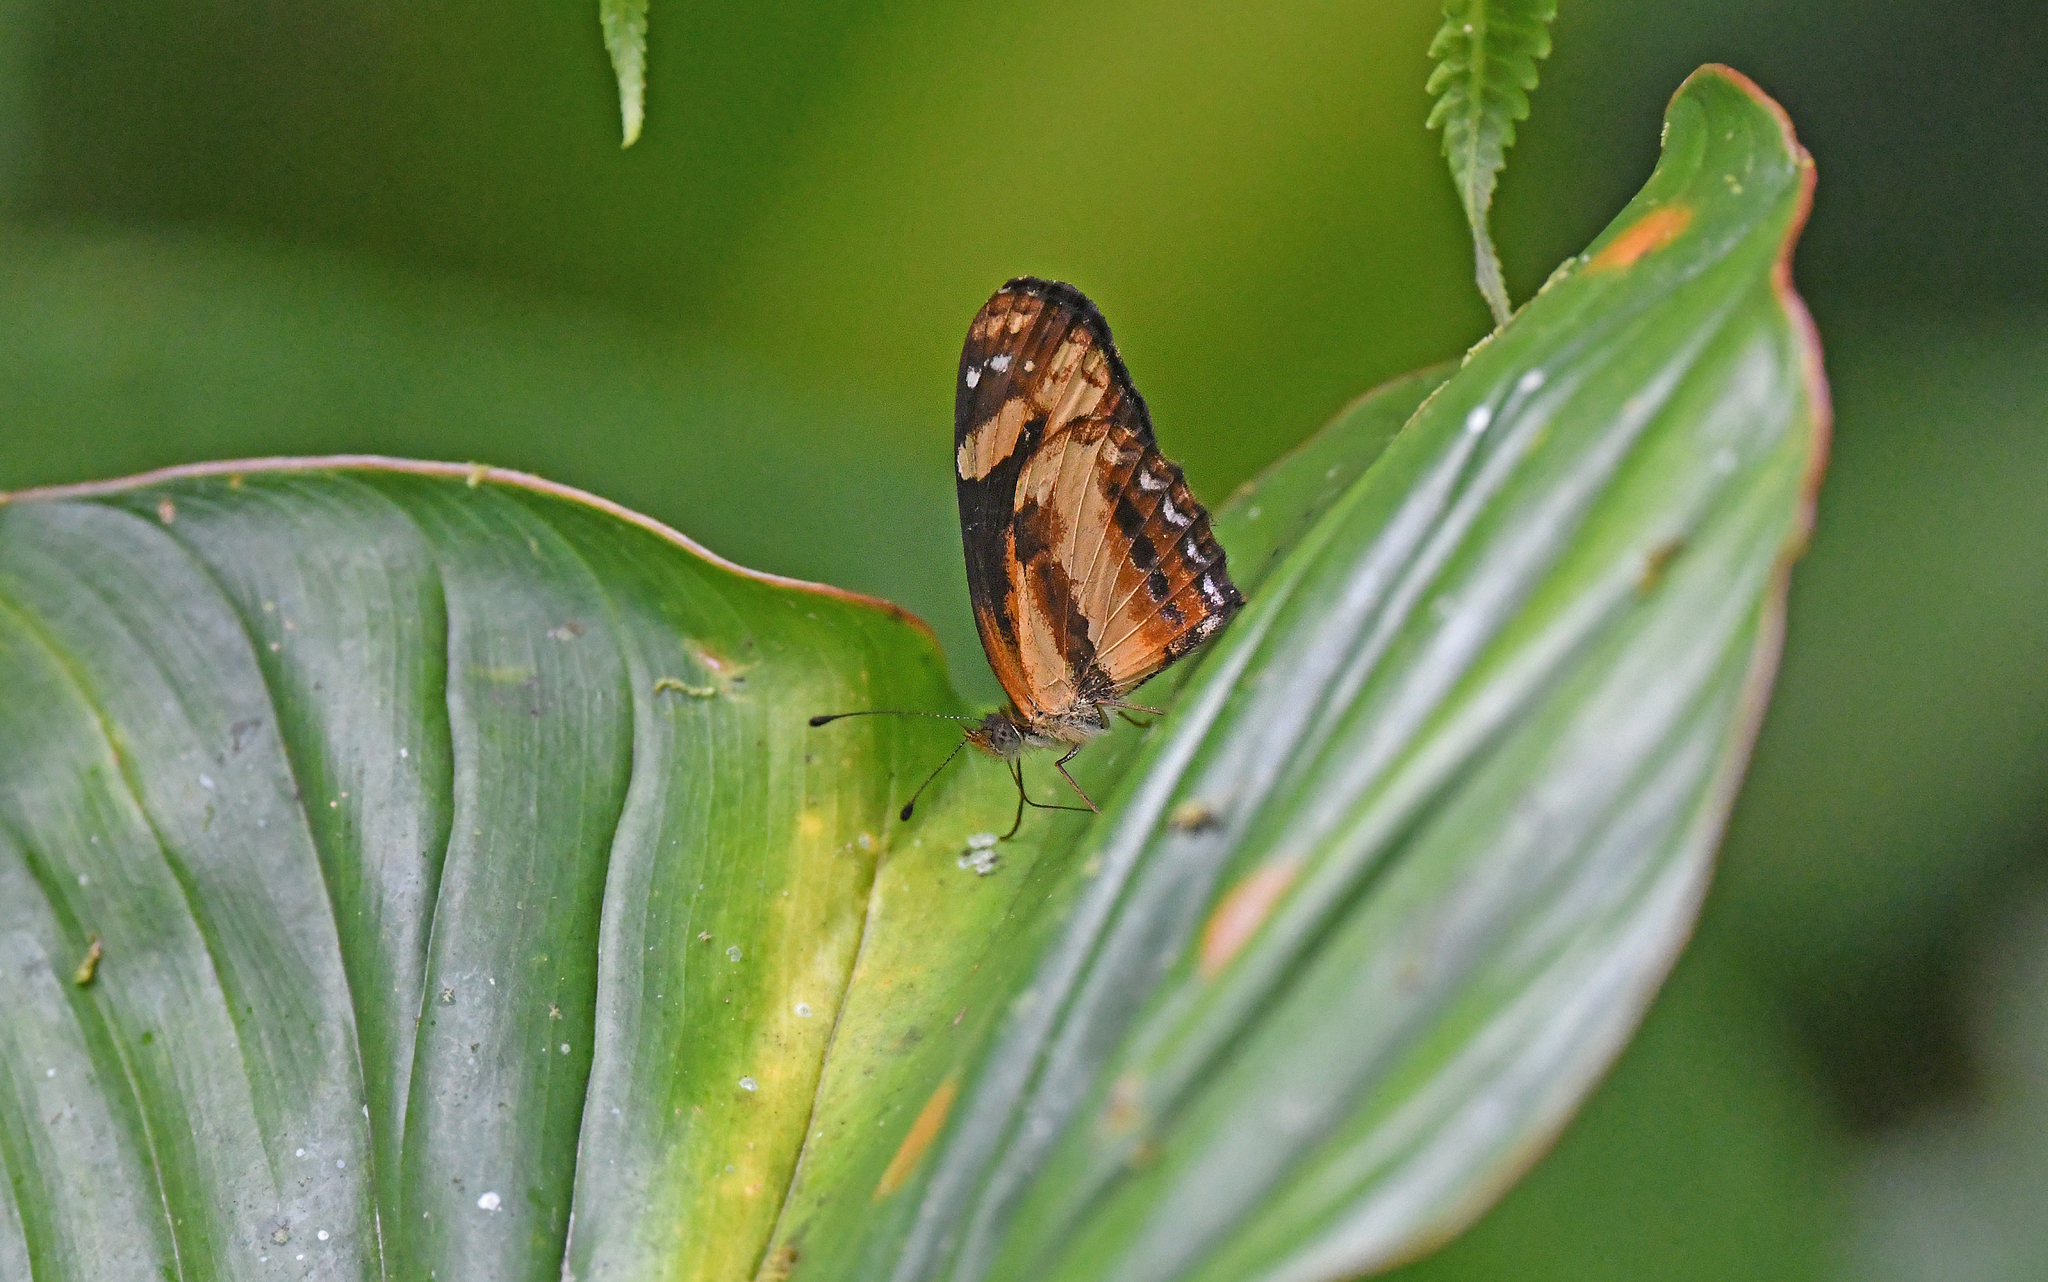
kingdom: Animalia
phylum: Arthropoda
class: Insecta
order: Lepidoptera
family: Nymphalidae
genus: Castilia
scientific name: Castilia eranites
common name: Smudged crescent
